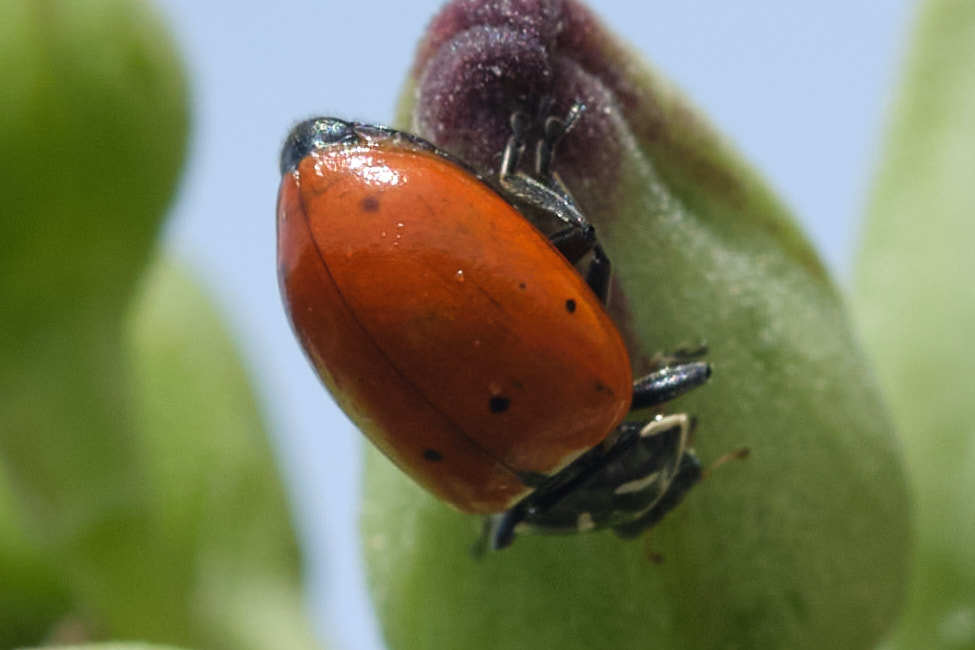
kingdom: Animalia
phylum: Arthropoda
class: Insecta
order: Coleoptera
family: Coccinellidae
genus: Hippodamia
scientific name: Hippodamia convergens
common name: Convergent lady beetle
